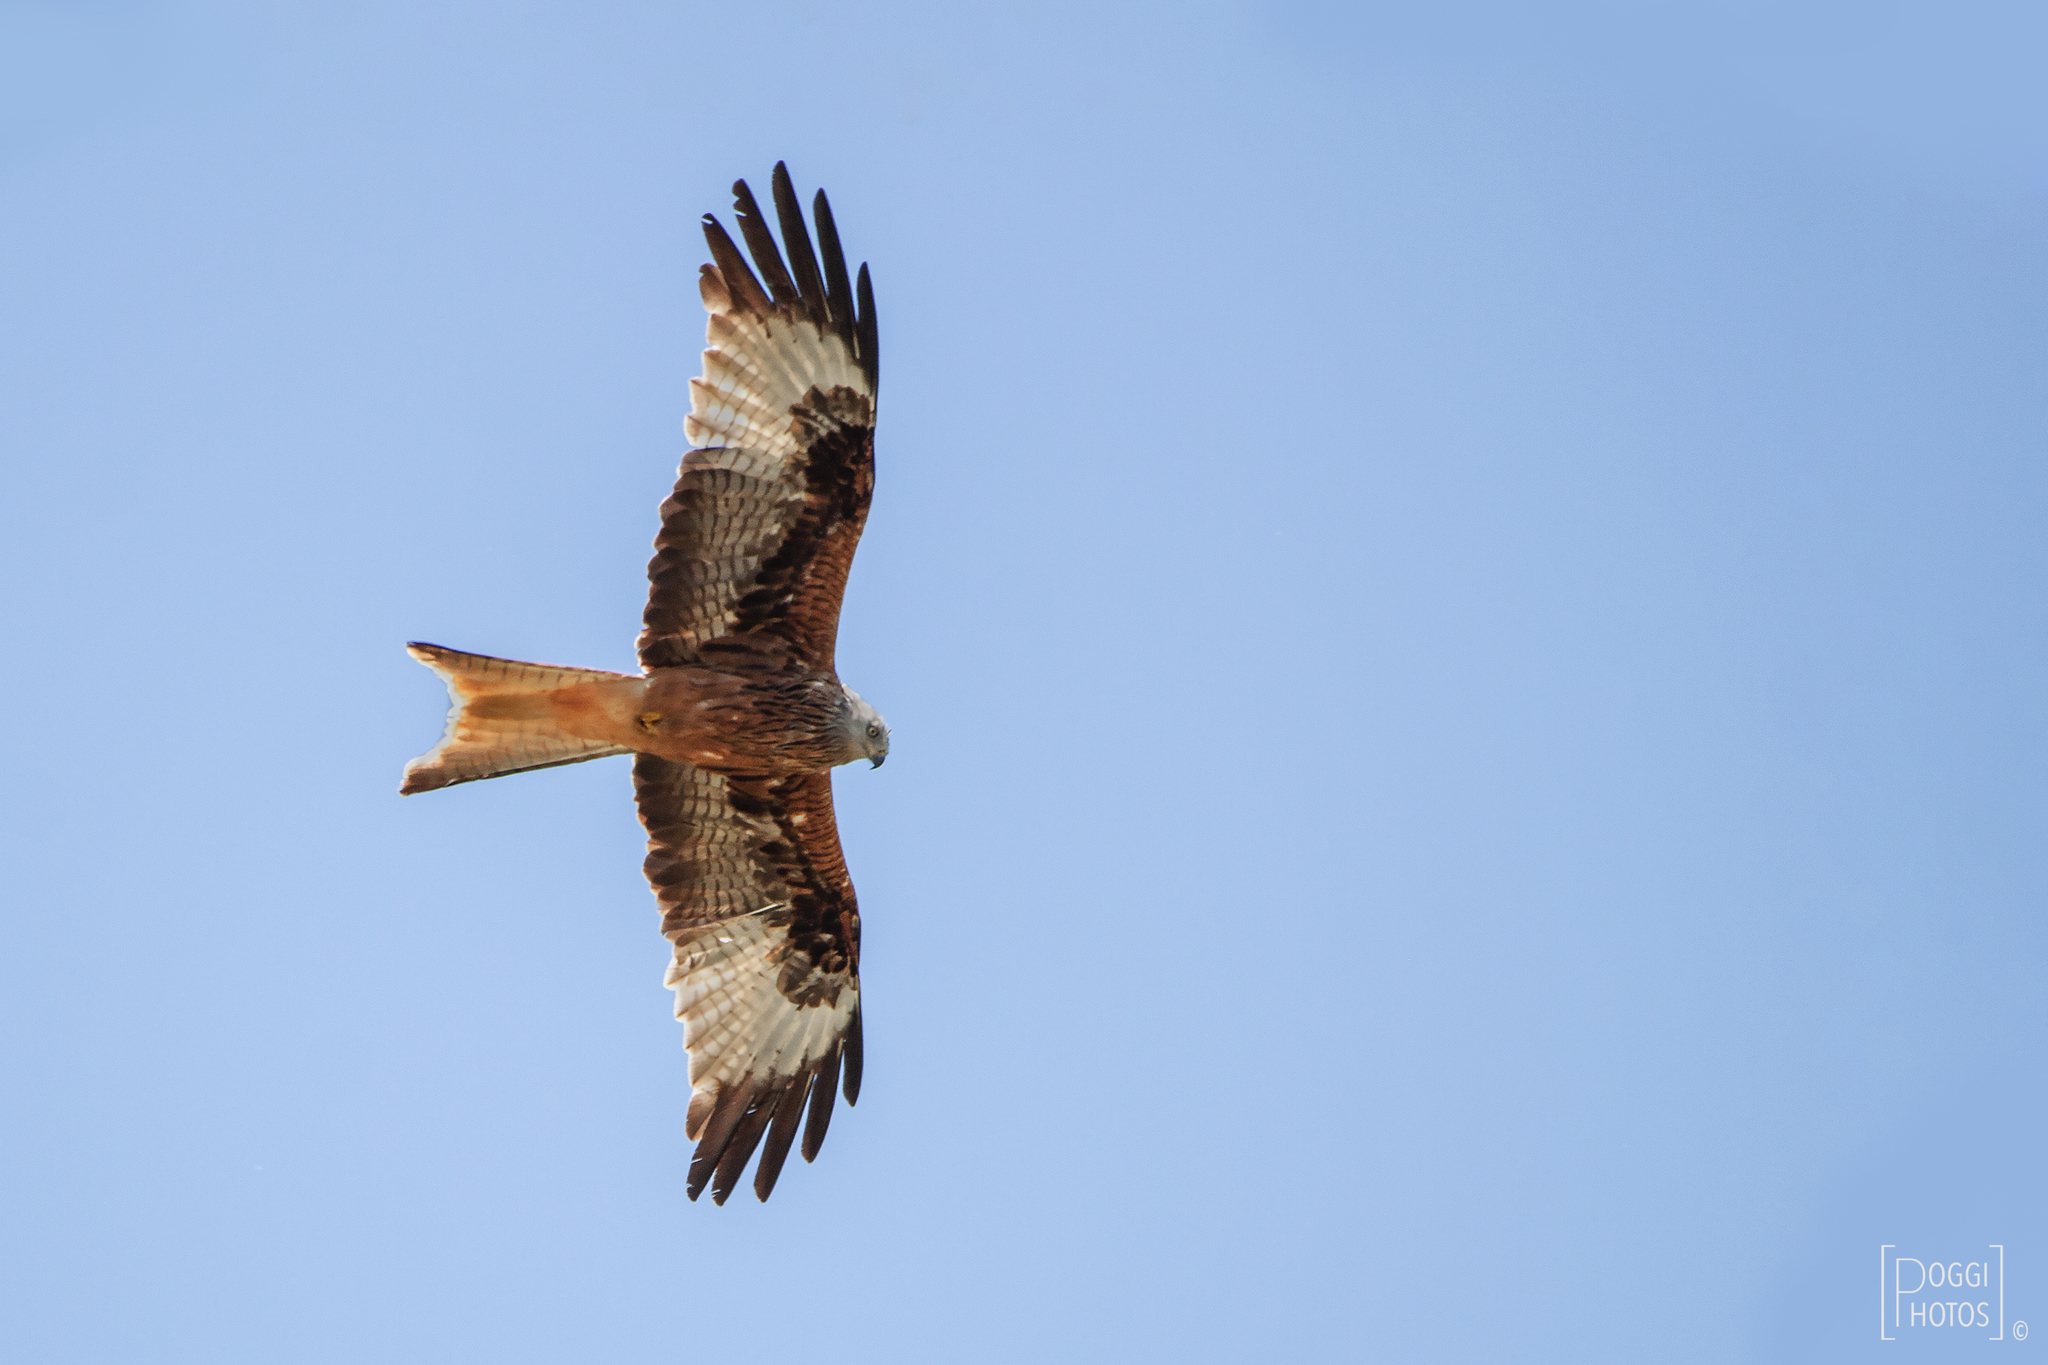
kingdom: Animalia
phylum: Chordata
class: Aves
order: Accipitriformes
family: Accipitridae
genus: Milvus
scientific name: Milvus milvus
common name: Red kite
